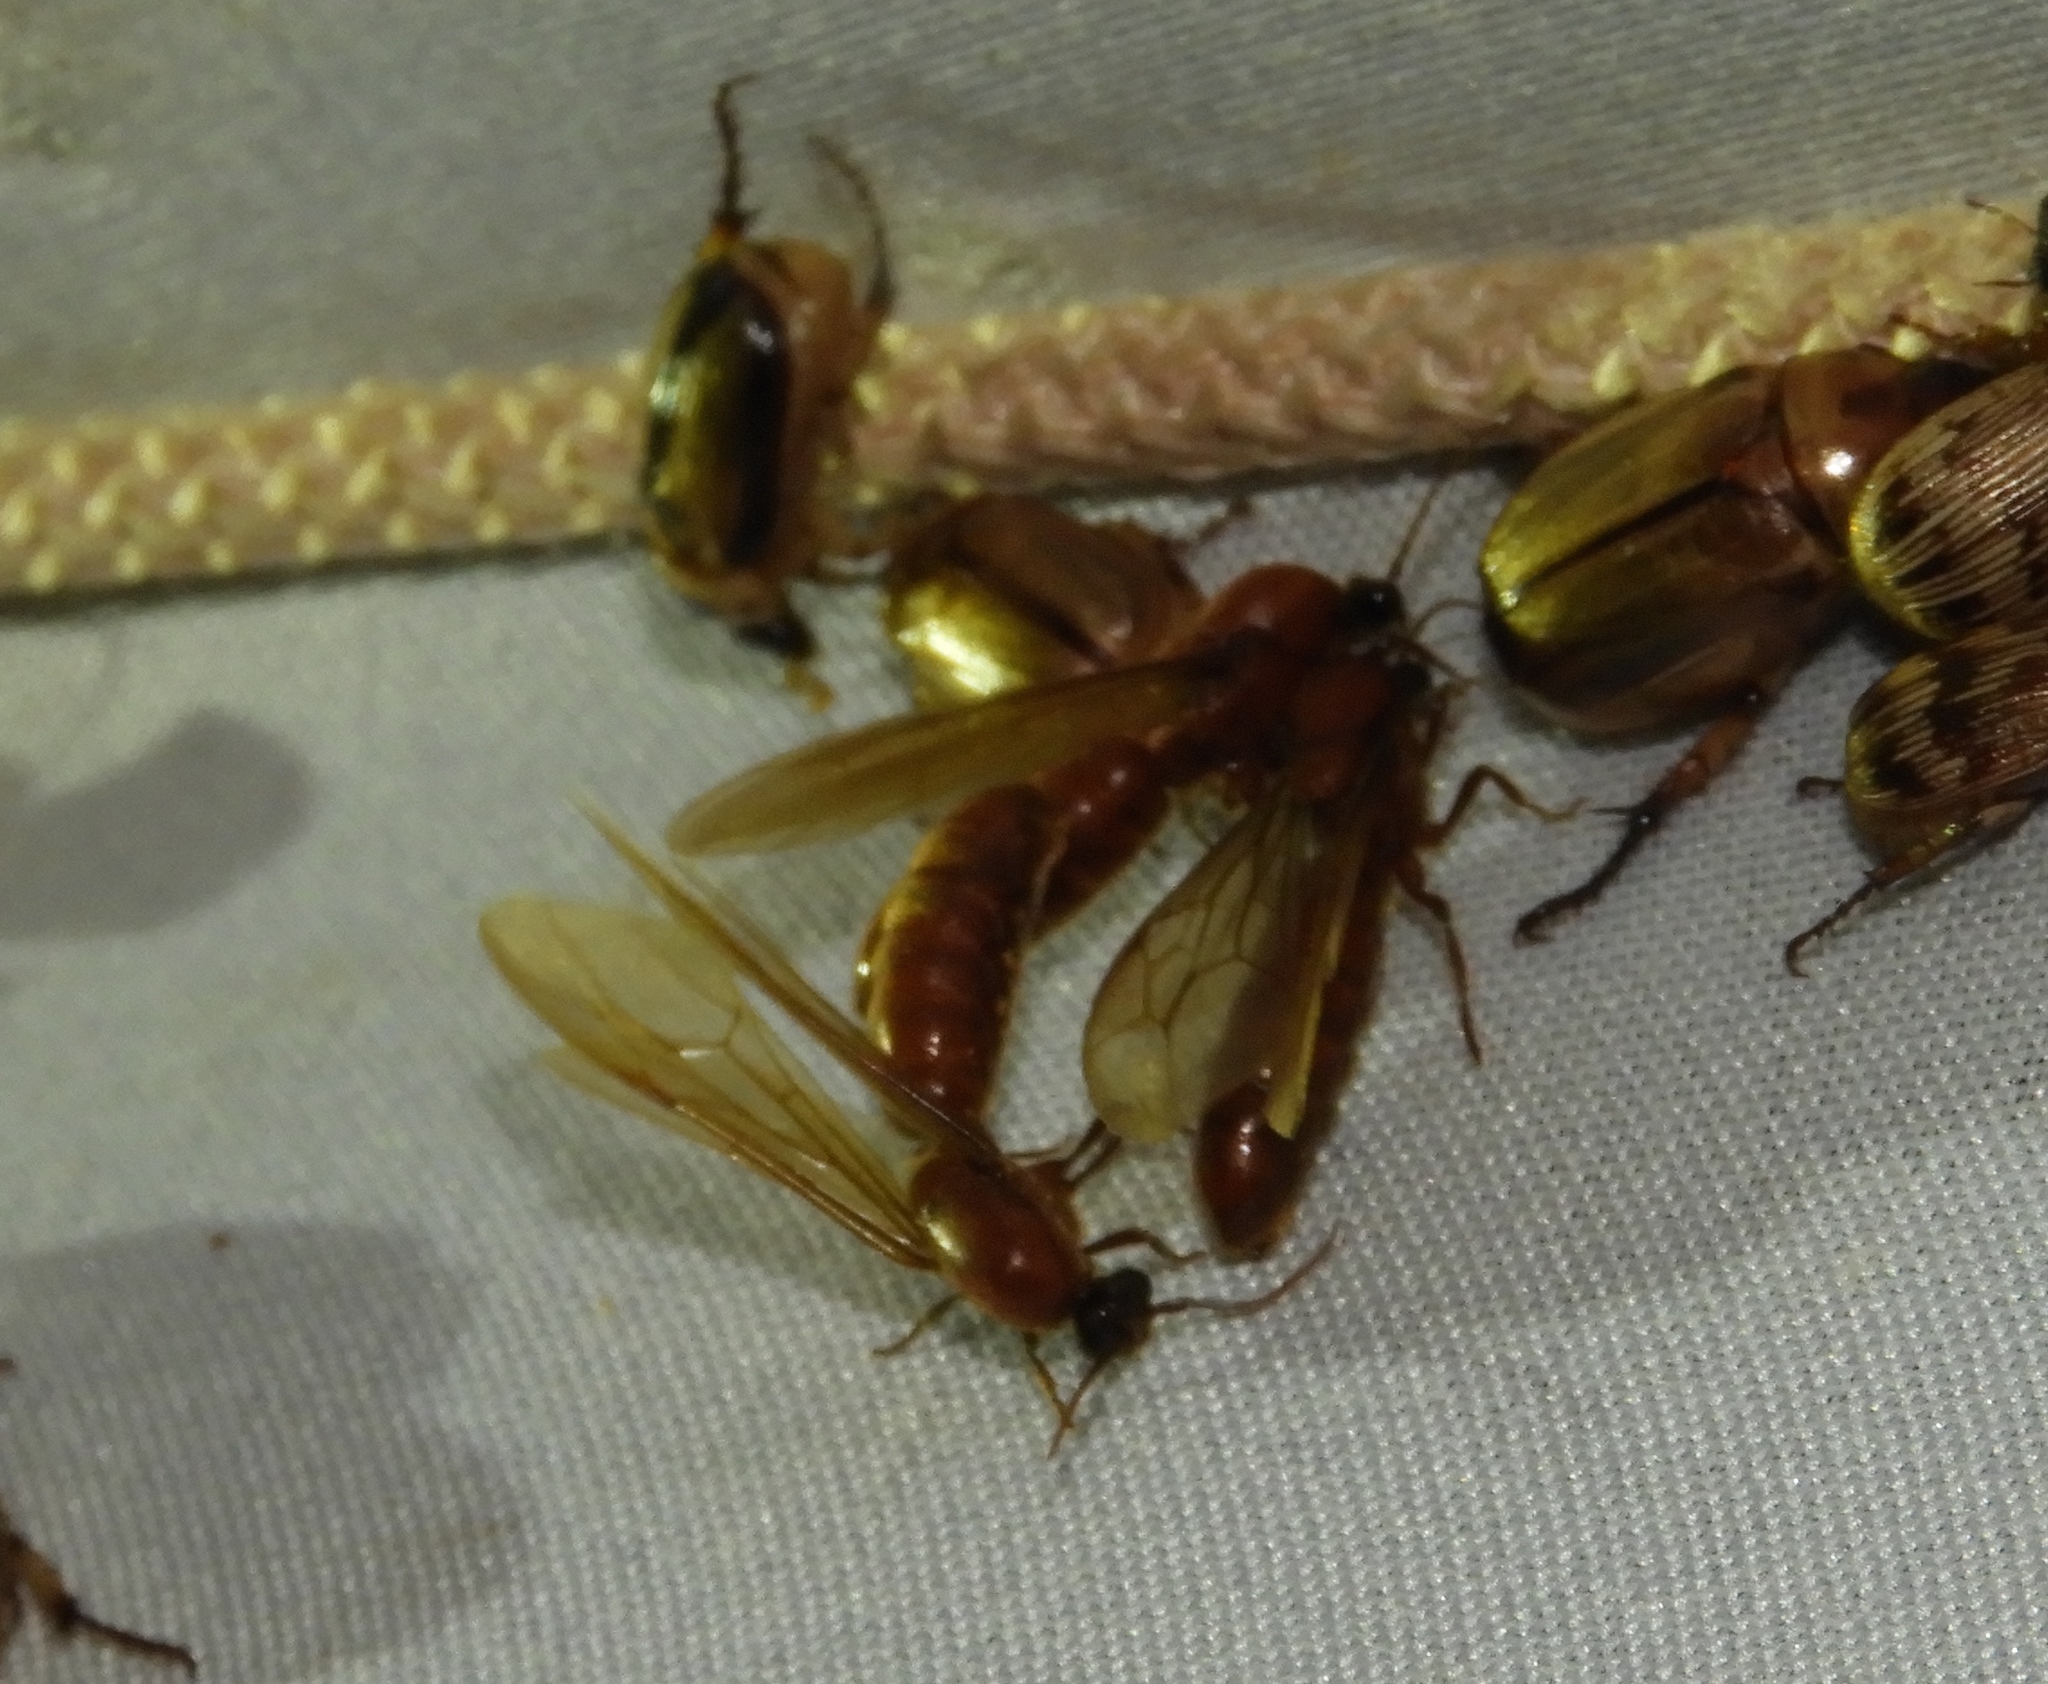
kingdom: Animalia
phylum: Arthropoda
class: Insecta
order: Hymenoptera
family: Formicidae
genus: Neivamyrmex
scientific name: Neivamyrmex
